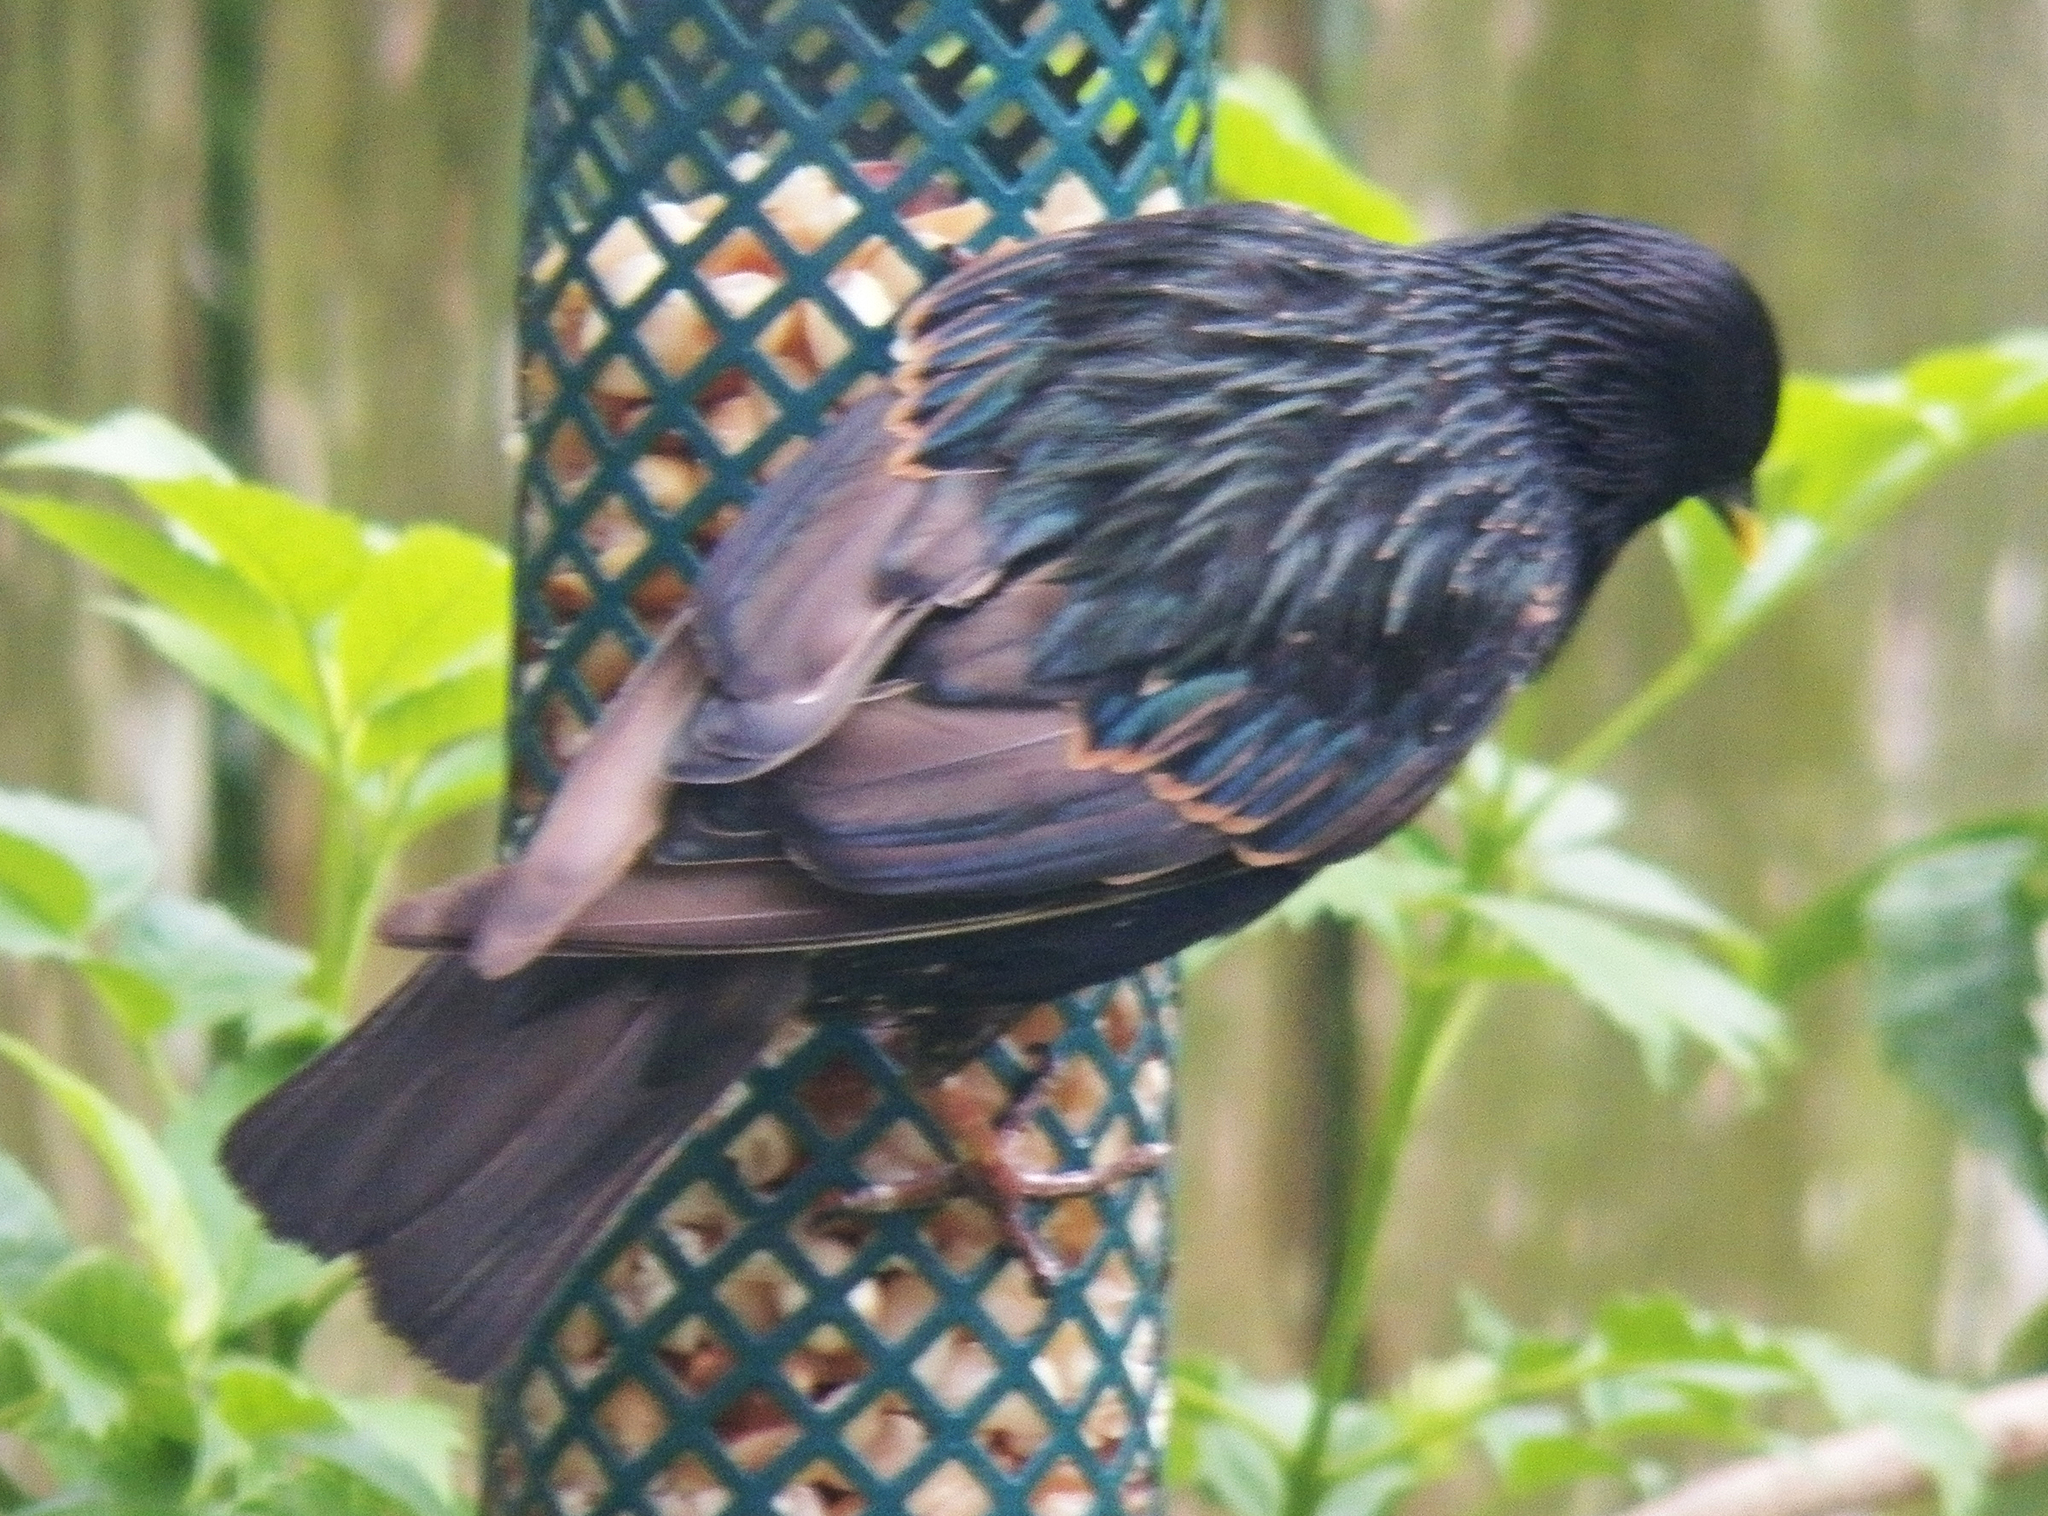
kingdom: Animalia
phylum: Chordata
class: Aves
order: Passeriformes
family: Sturnidae
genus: Sturnus
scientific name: Sturnus vulgaris
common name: Common starling
